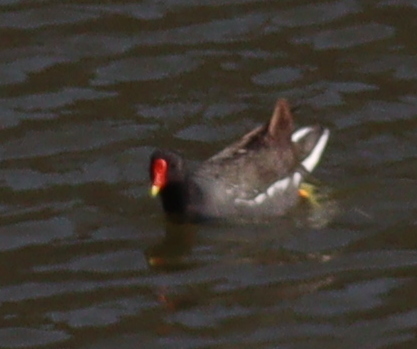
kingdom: Animalia
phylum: Chordata
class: Aves
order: Gruiformes
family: Rallidae
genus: Gallinula
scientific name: Gallinula chloropus
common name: Common moorhen
